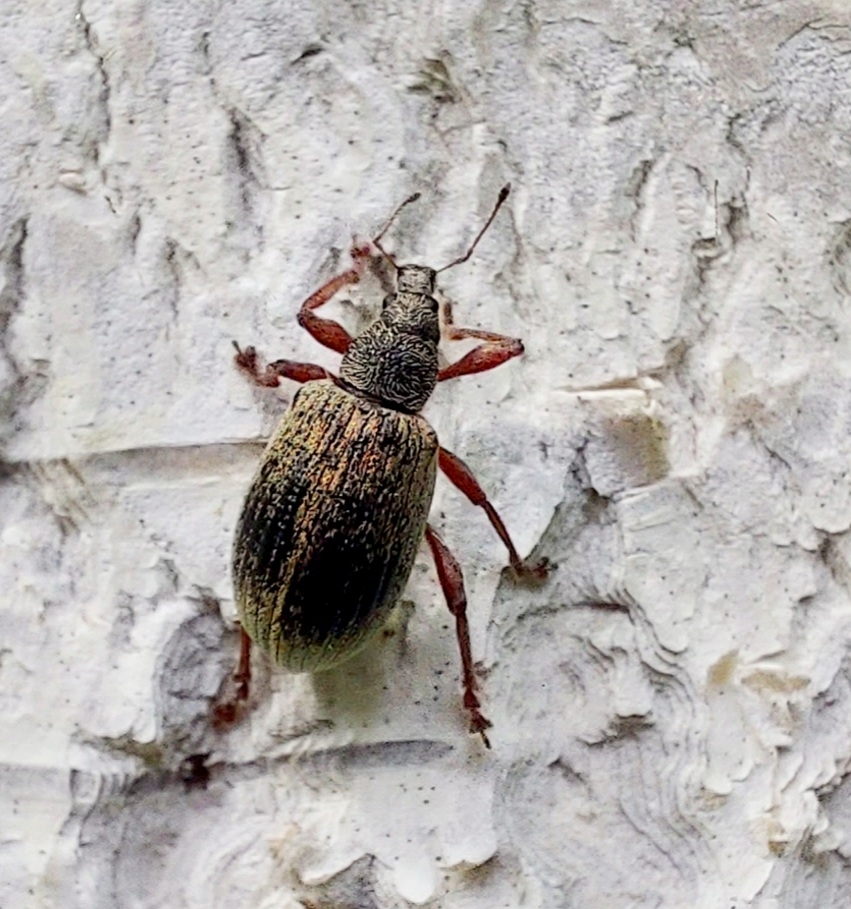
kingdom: Animalia
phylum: Arthropoda
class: Insecta
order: Coleoptera
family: Curculionidae
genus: Polydrusus
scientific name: Polydrusus mollis
